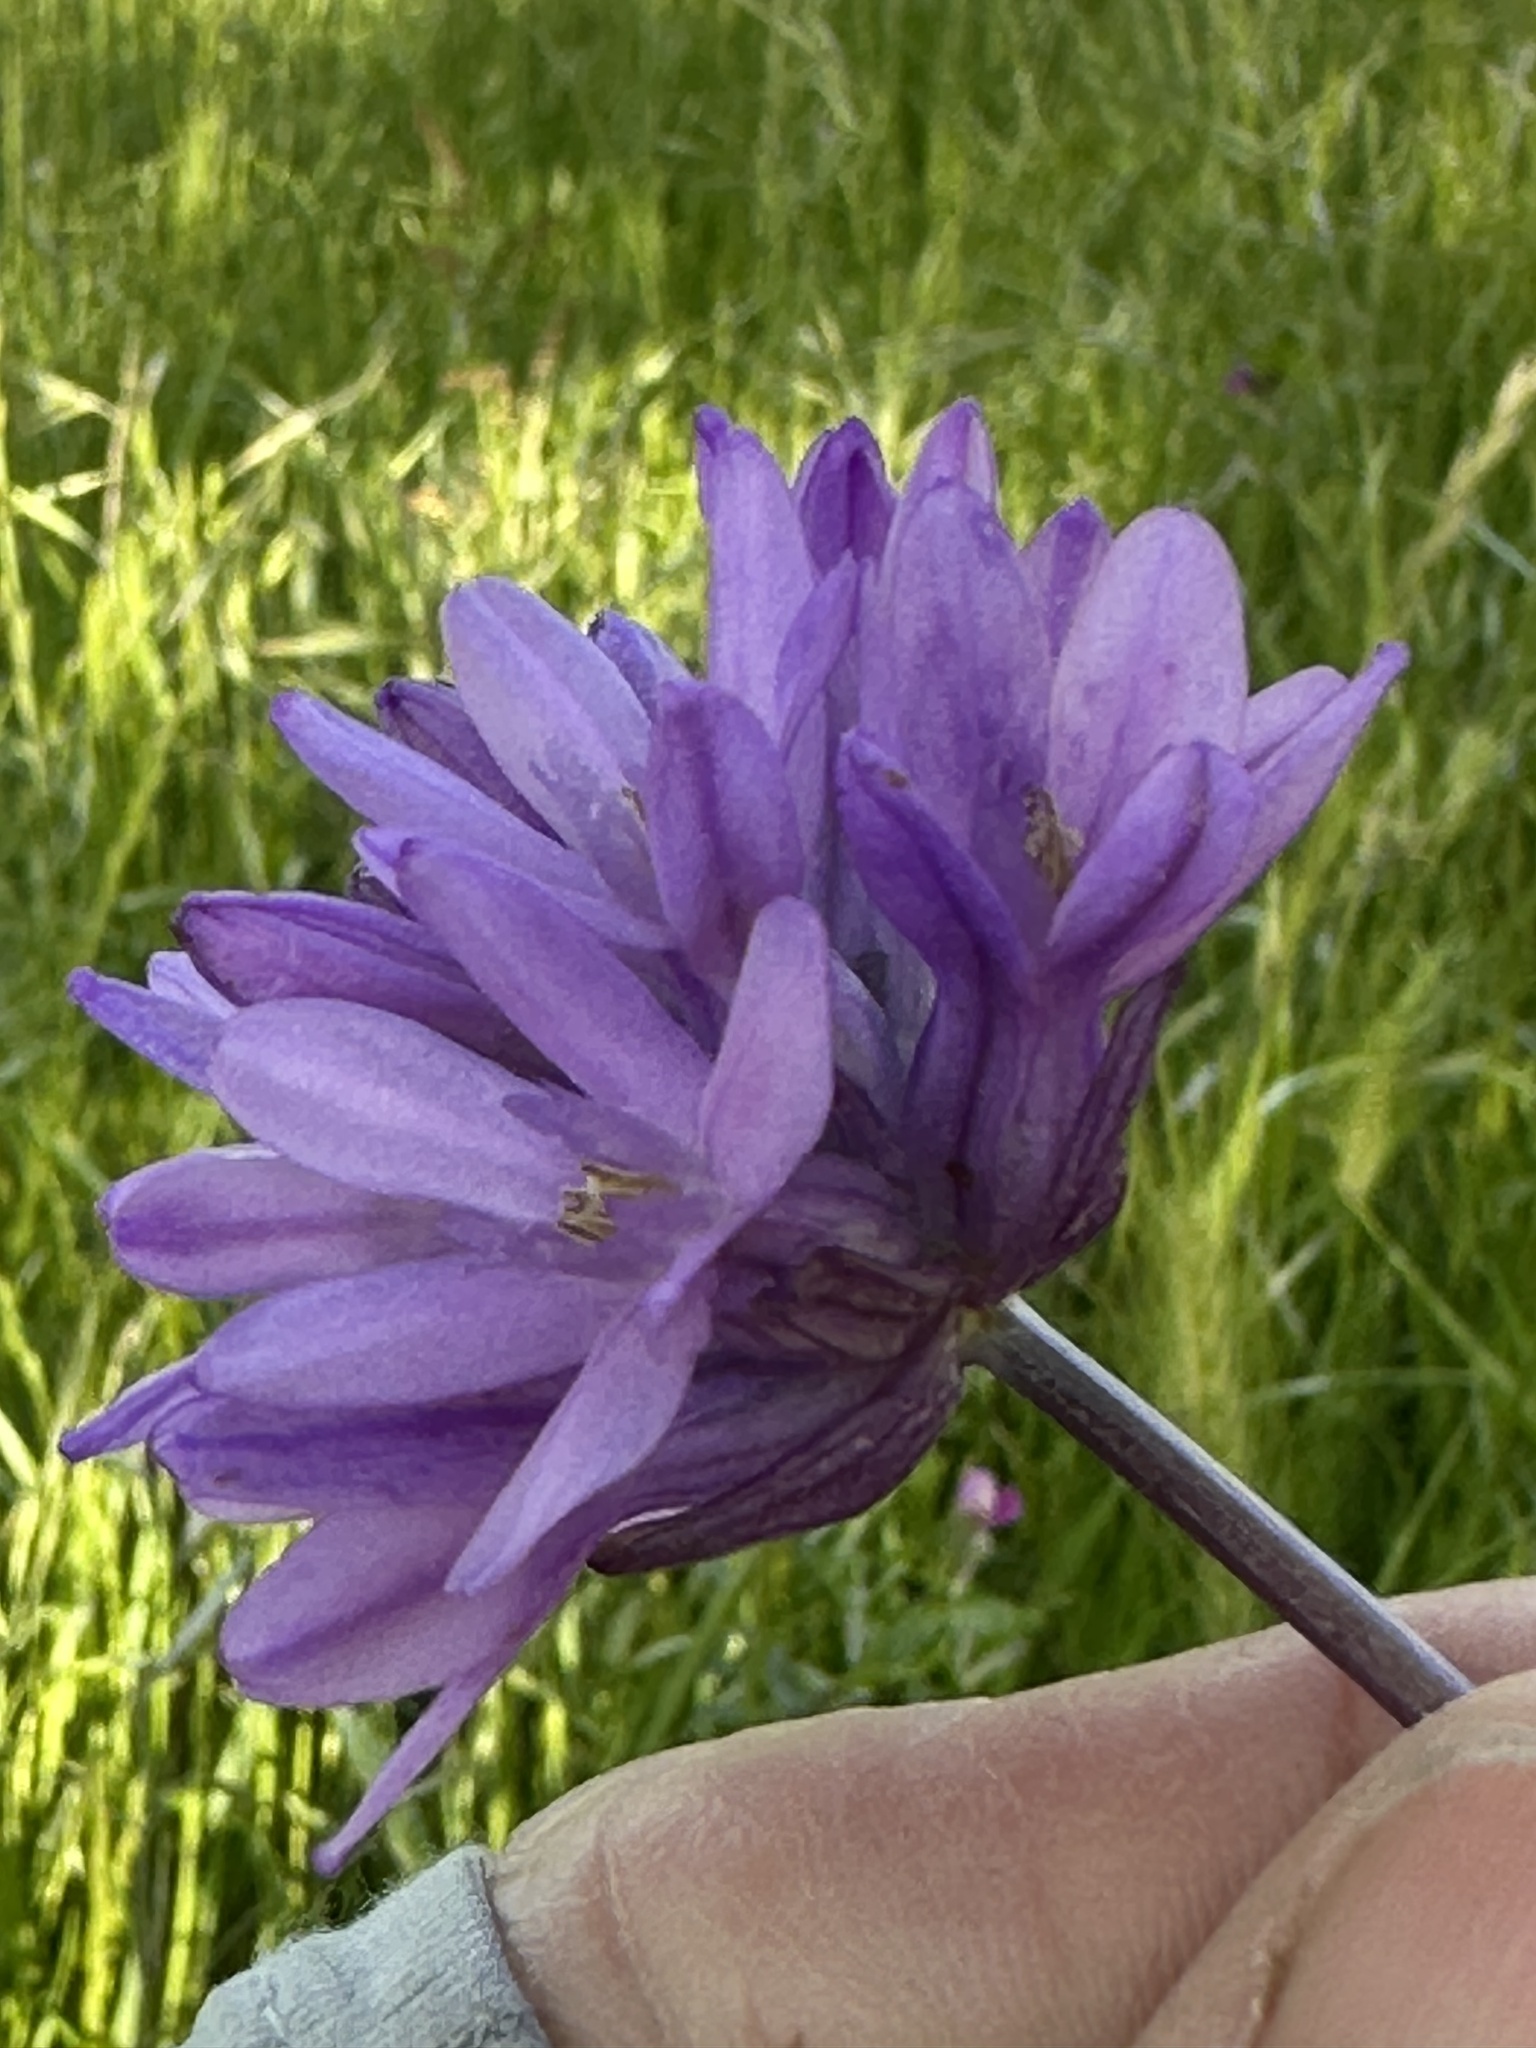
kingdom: Plantae
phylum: Tracheophyta
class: Liliopsida
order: Asparagales
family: Asparagaceae
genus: Dichelostemma
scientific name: Dichelostemma congestum
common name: Fork-tooth ookow
